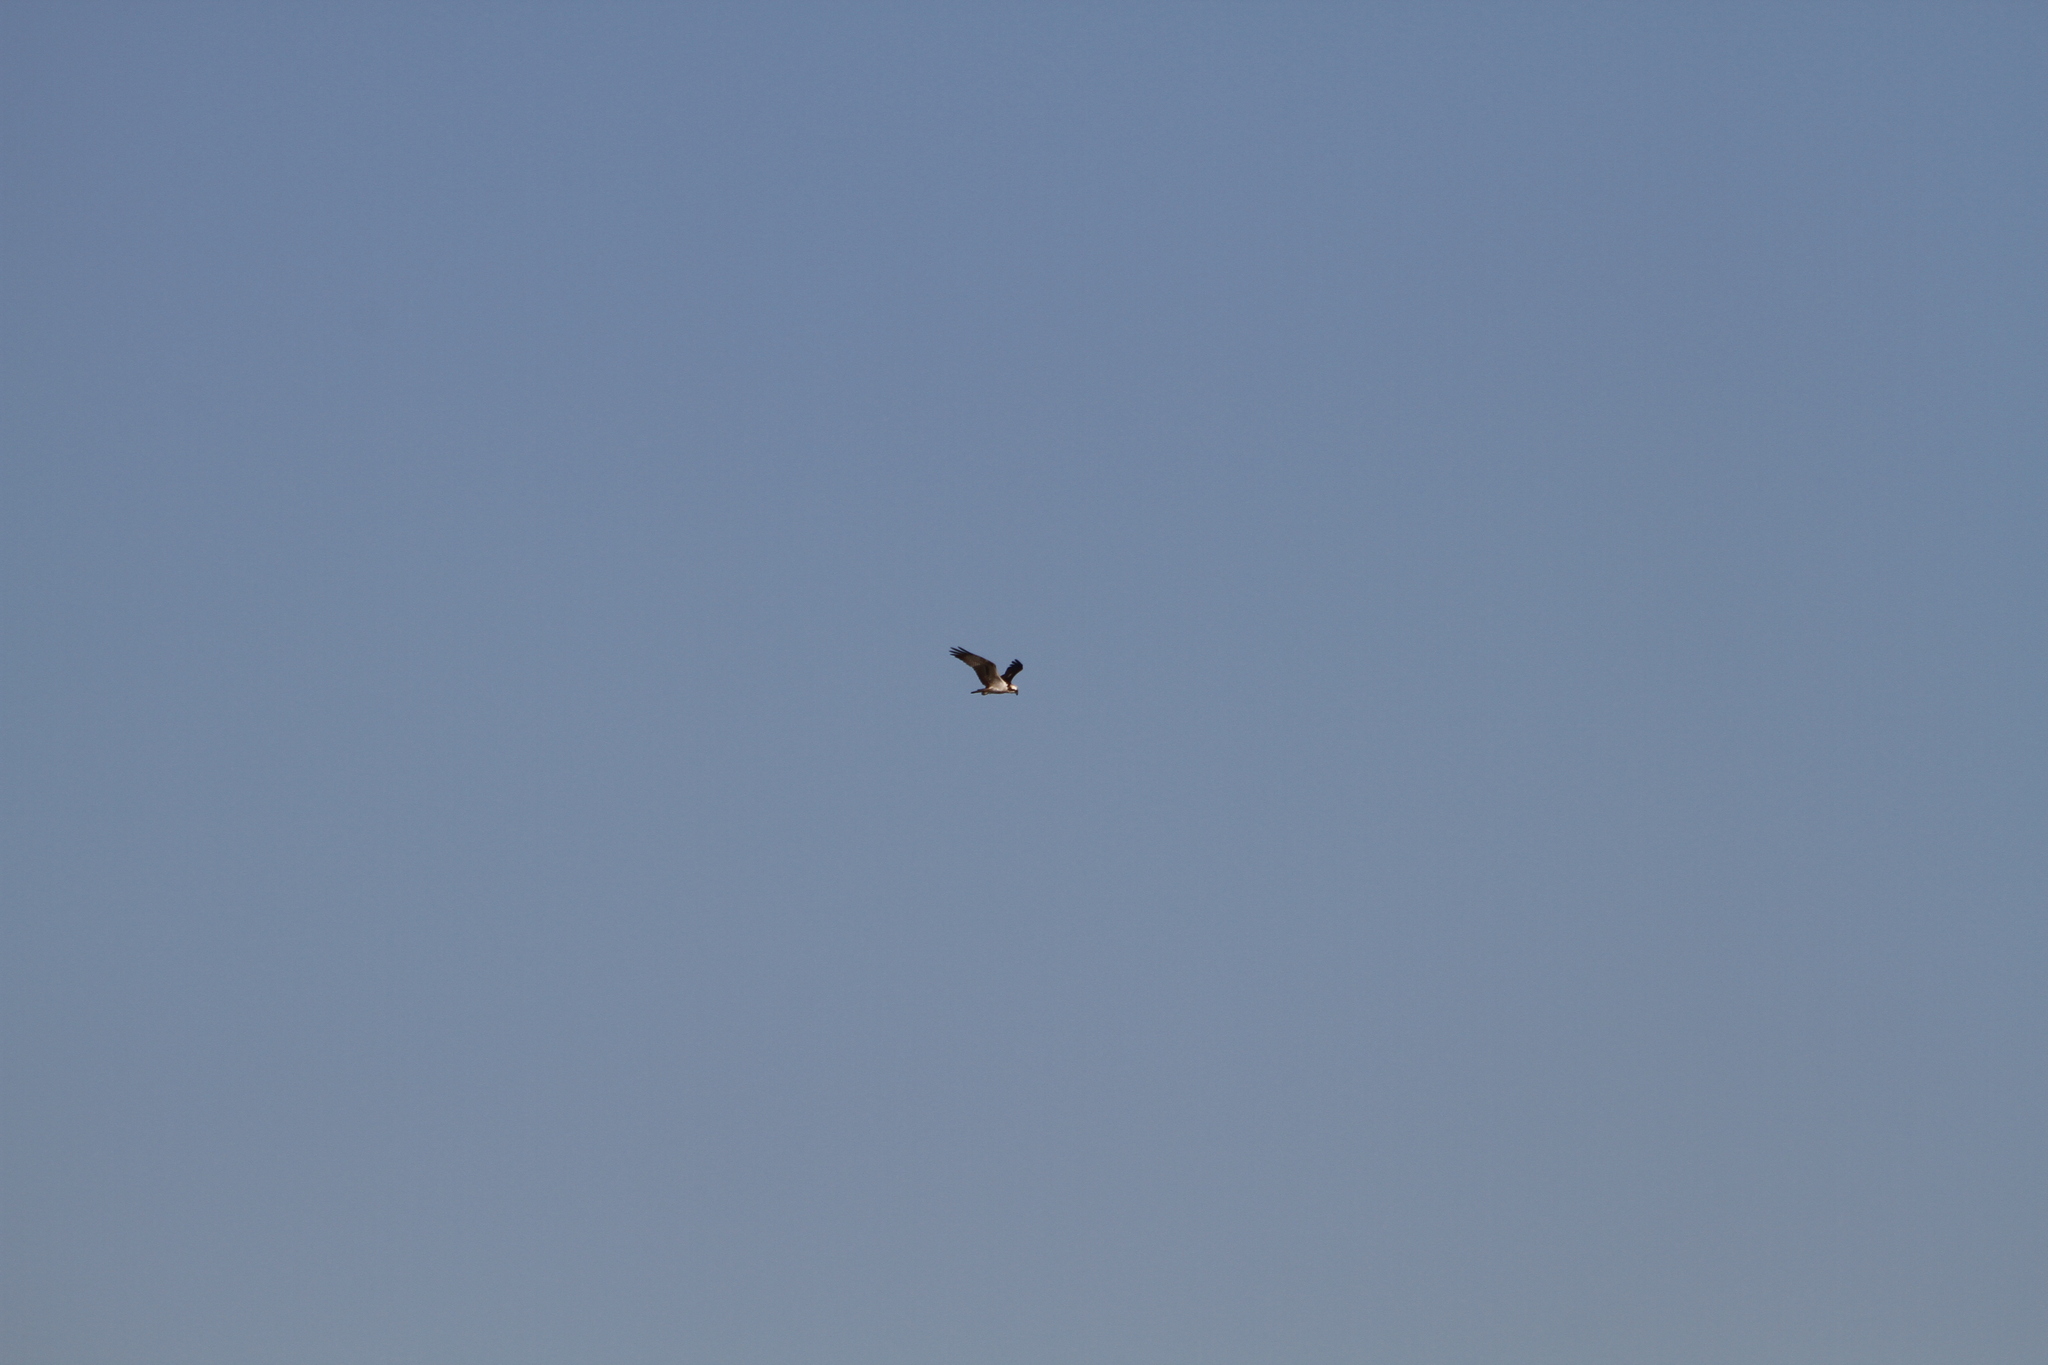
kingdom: Animalia
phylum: Chordata
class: Aves
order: Accipitriformes
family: Pandionidae
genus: Pandion
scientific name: Pandion haliaetus
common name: Osprey
